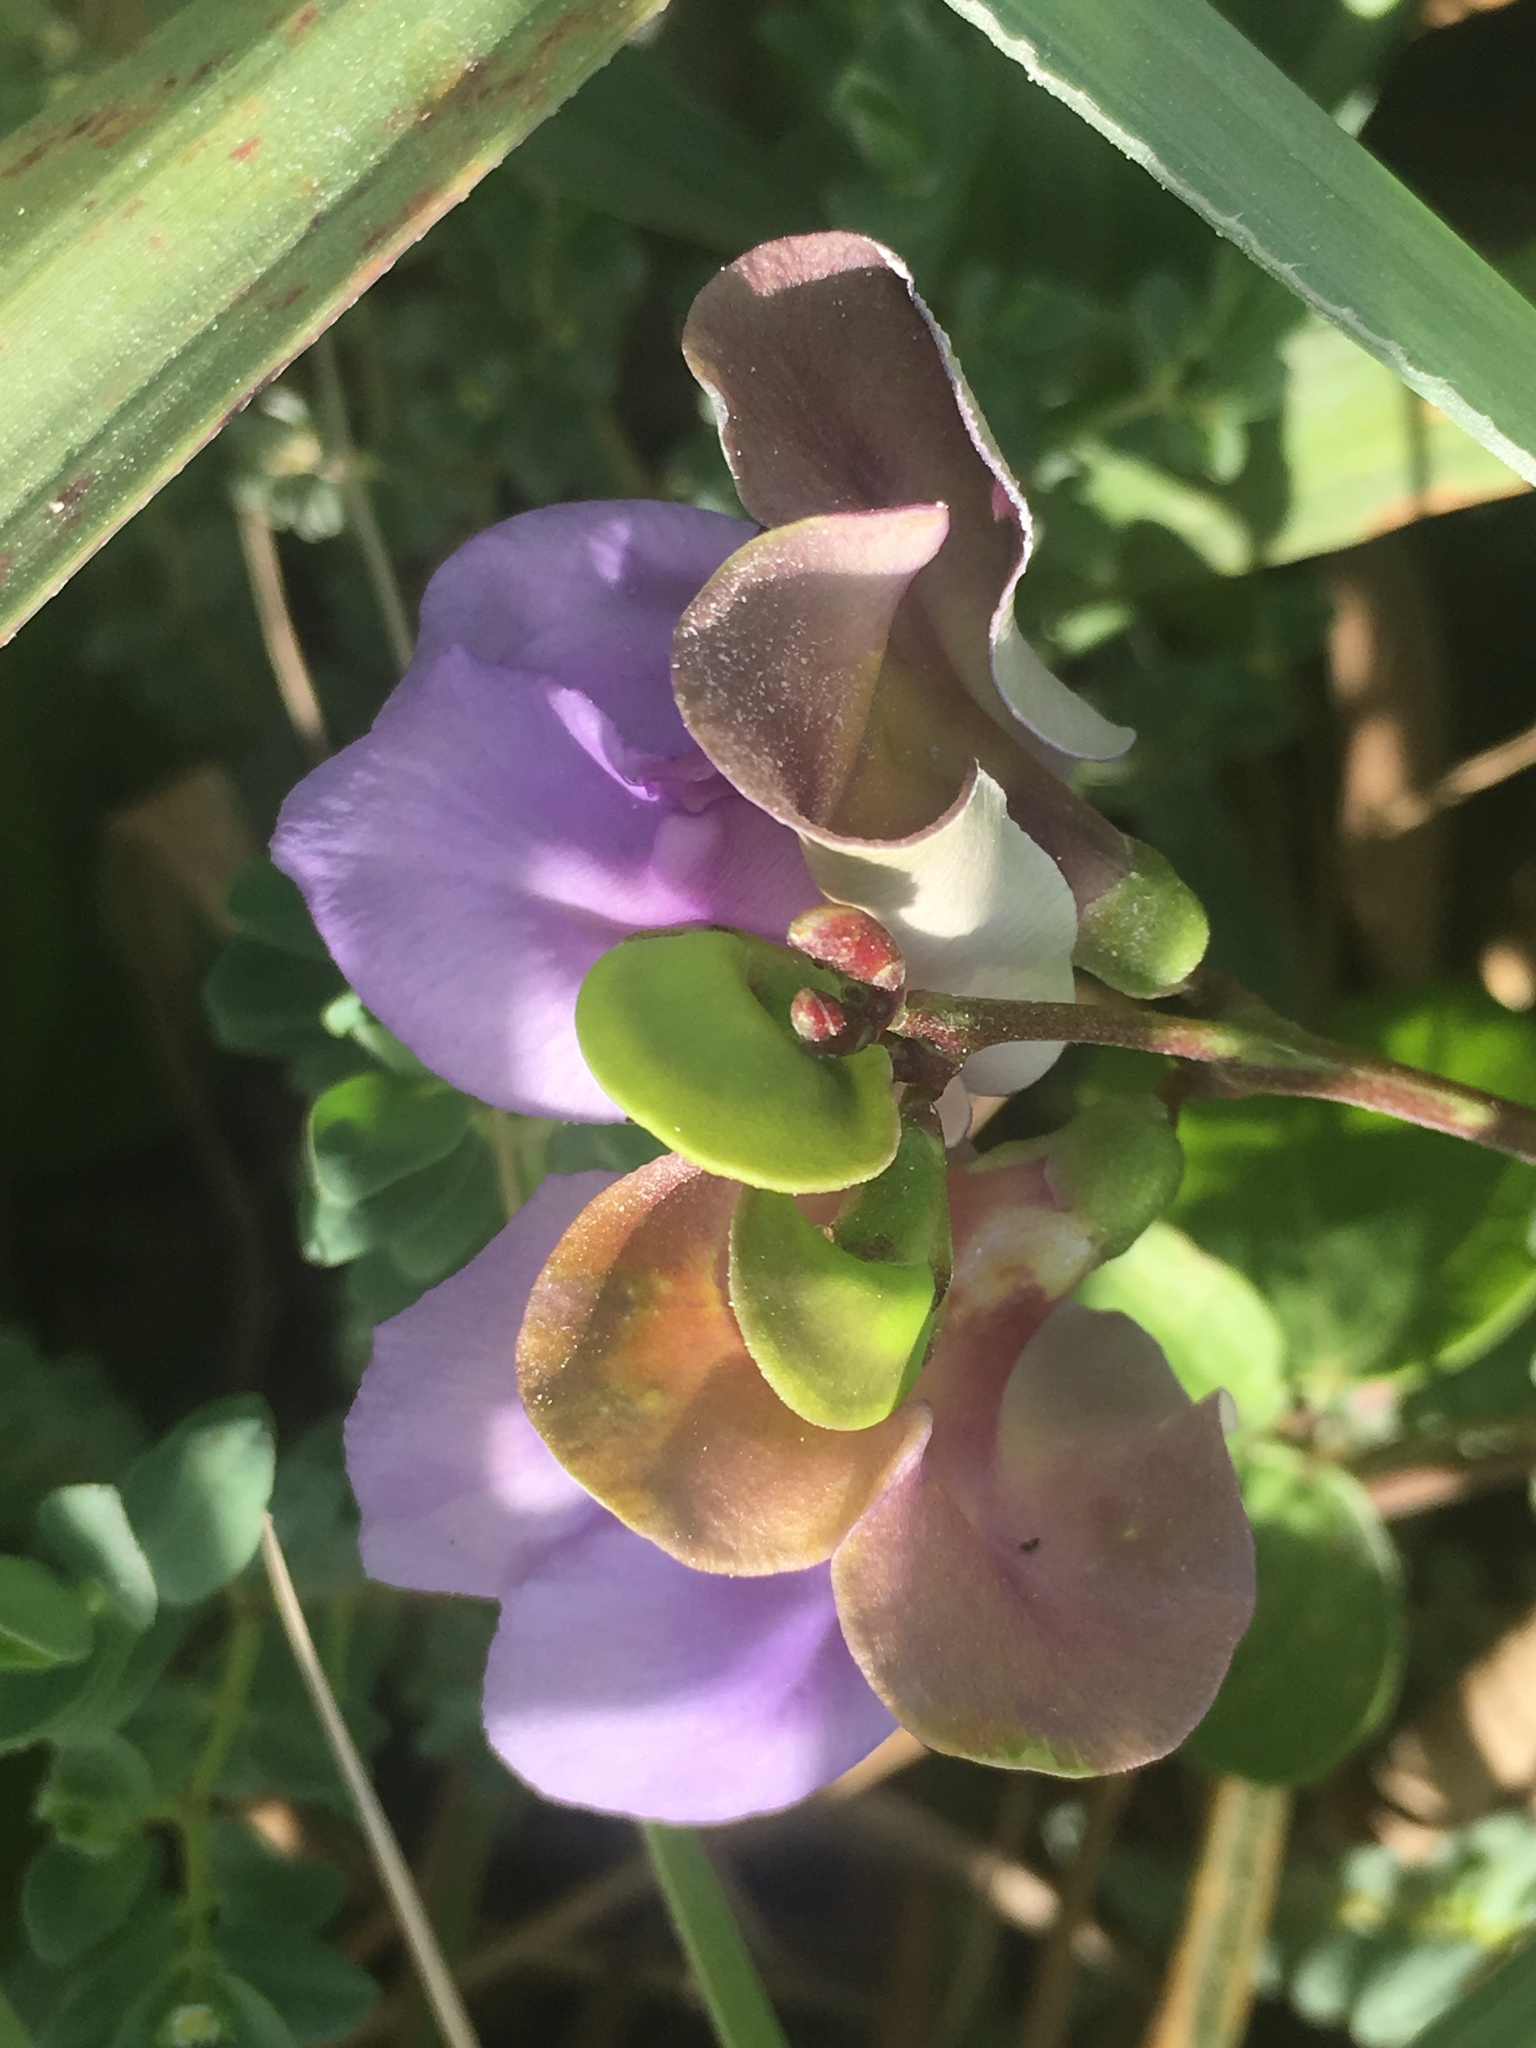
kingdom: Plantae
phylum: Tracheophyta
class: Magnoliopsida
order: Fabales
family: Fabaceae
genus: Canavalia
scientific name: Canavalia rosea
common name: Beach-bean
